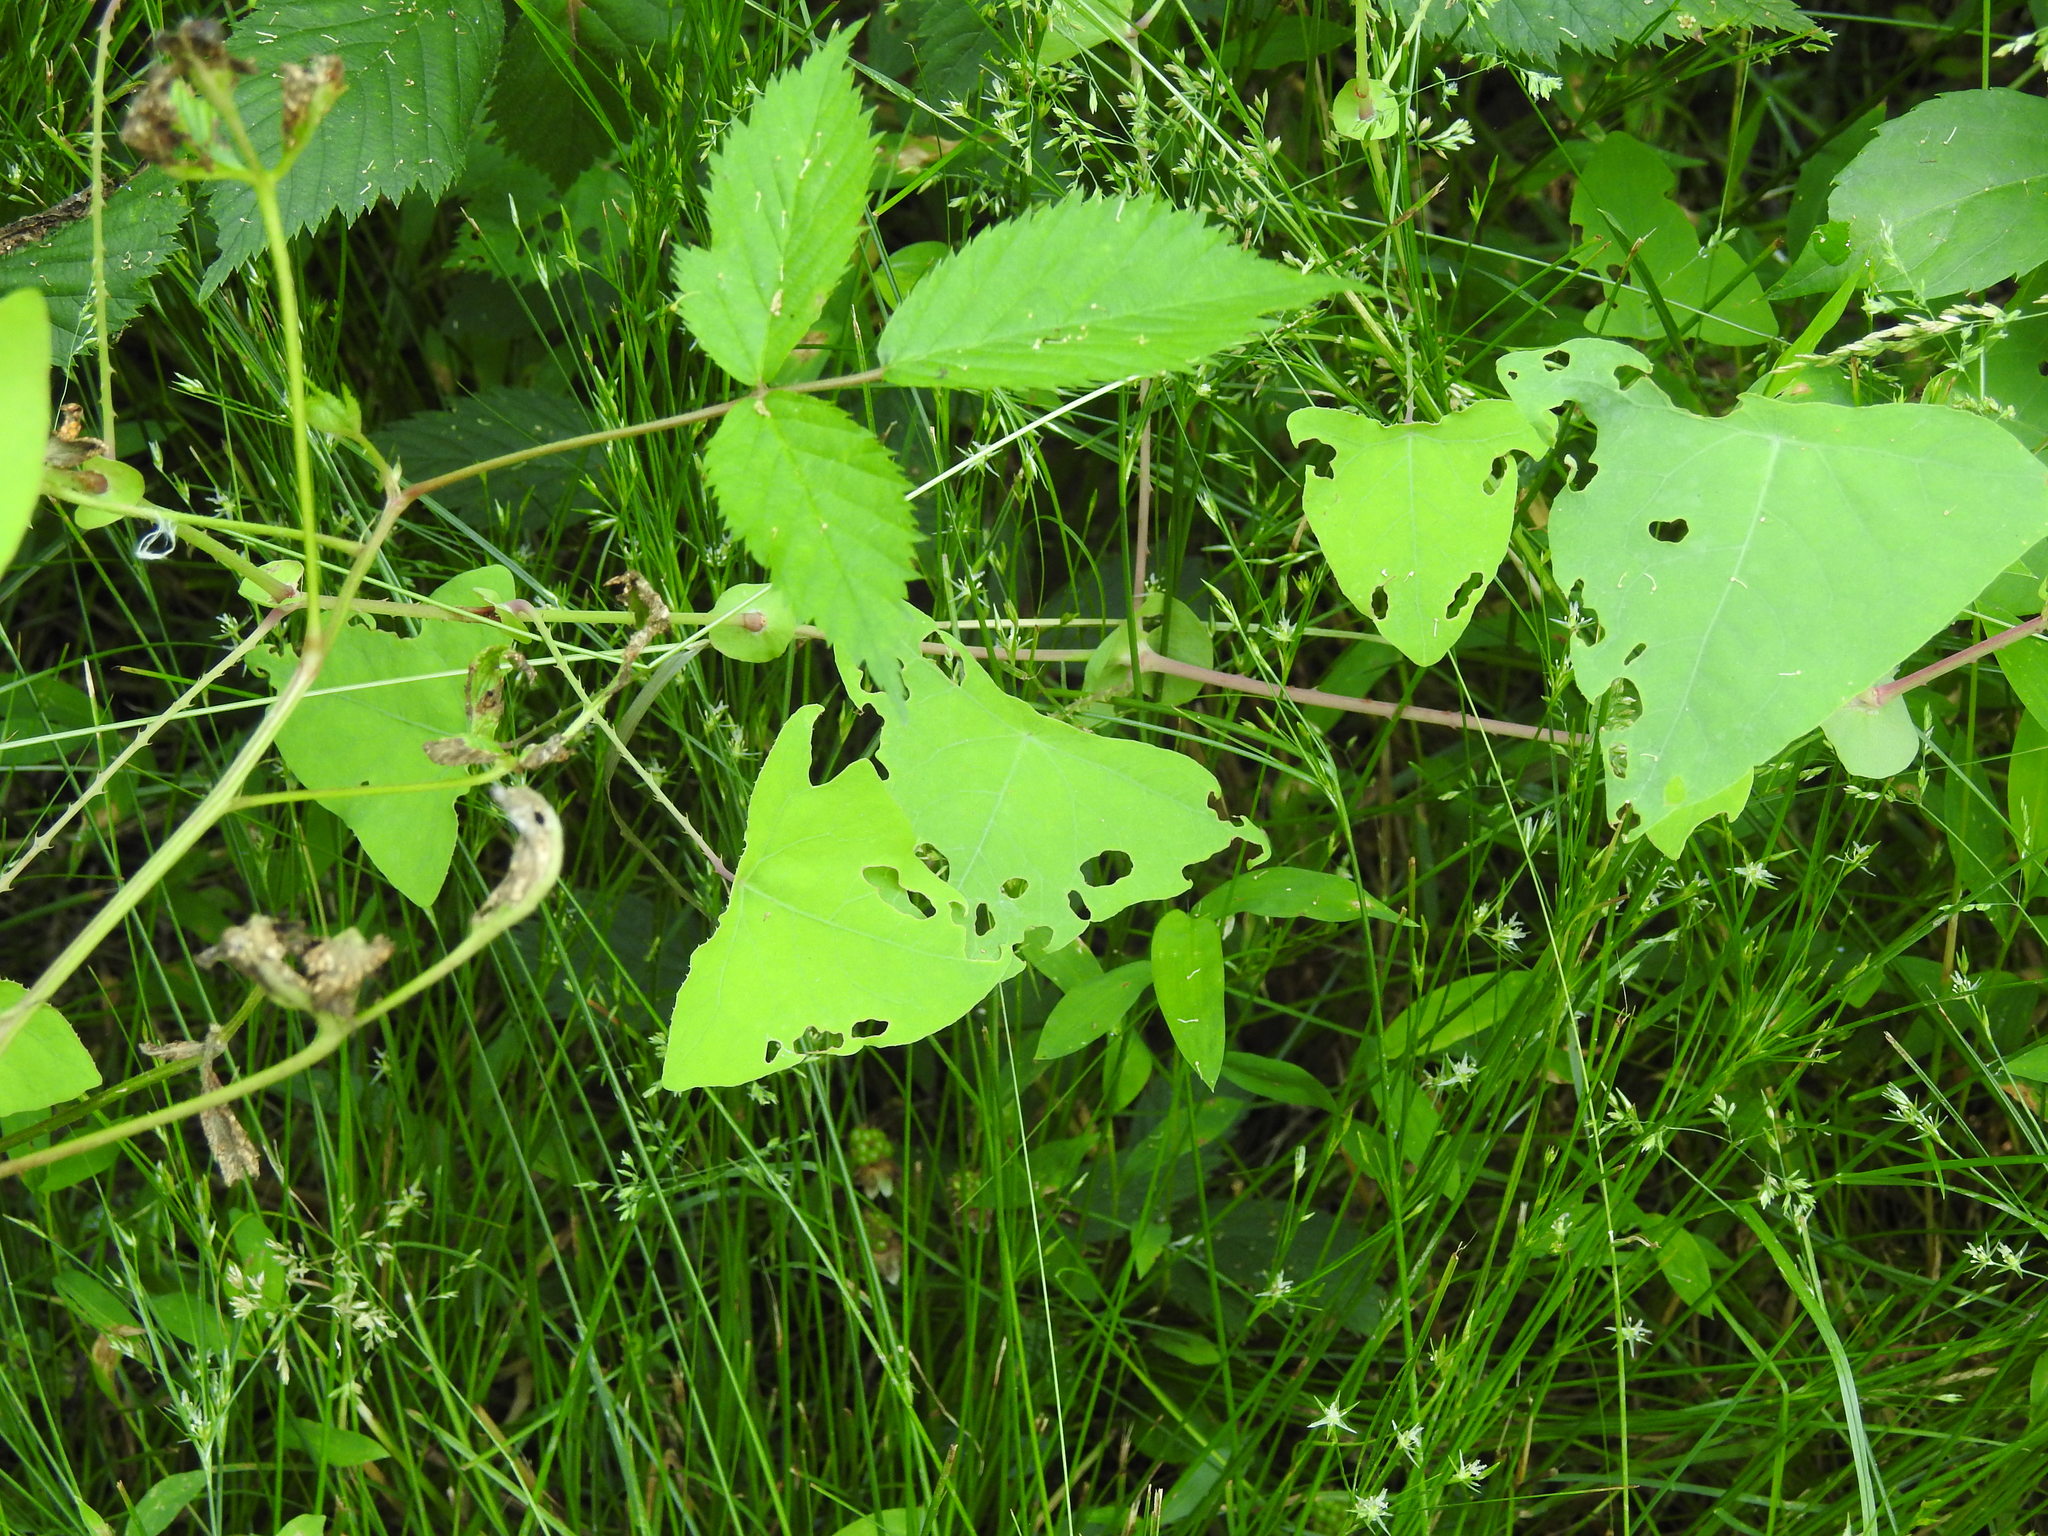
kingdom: Plantae
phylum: Tracheophyta
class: Magnoliopsida
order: Caryophyllales
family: Polygonaceae
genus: Persicaria
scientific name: Persicaria perfoliata
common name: Asiatic tearthumb
